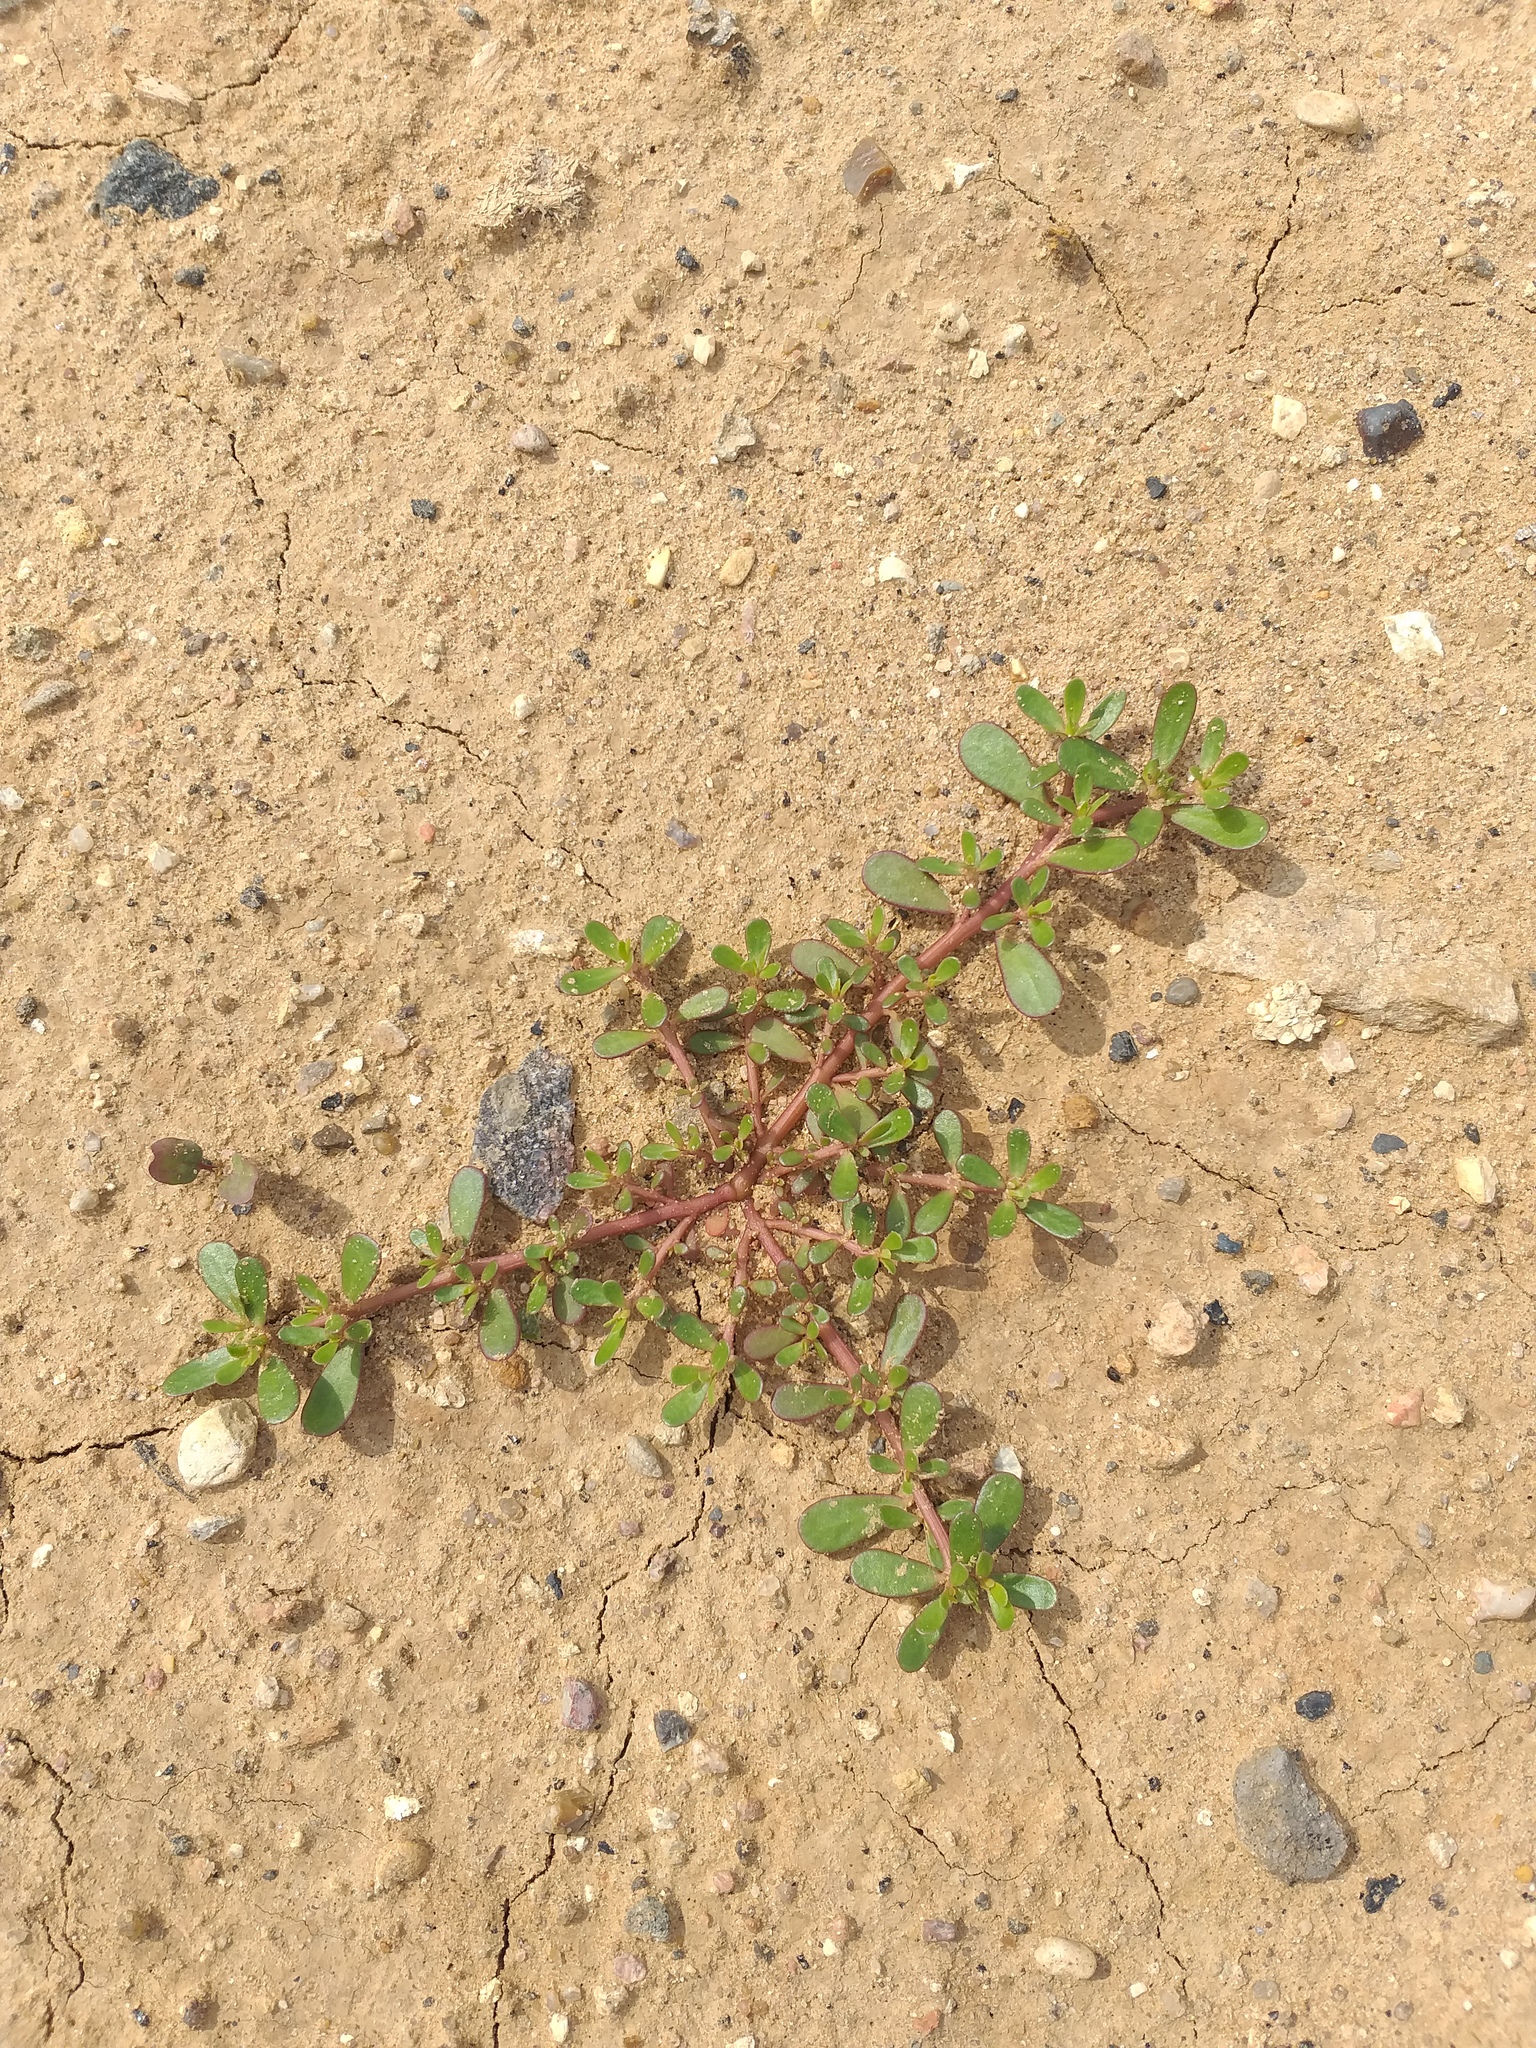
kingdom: Plantae
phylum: Tracheophyta
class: Magnoliopsida
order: Caryophyllales
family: Portulacaceae
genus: Portulaca
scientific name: Portulaca oleracea
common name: Common purslane
